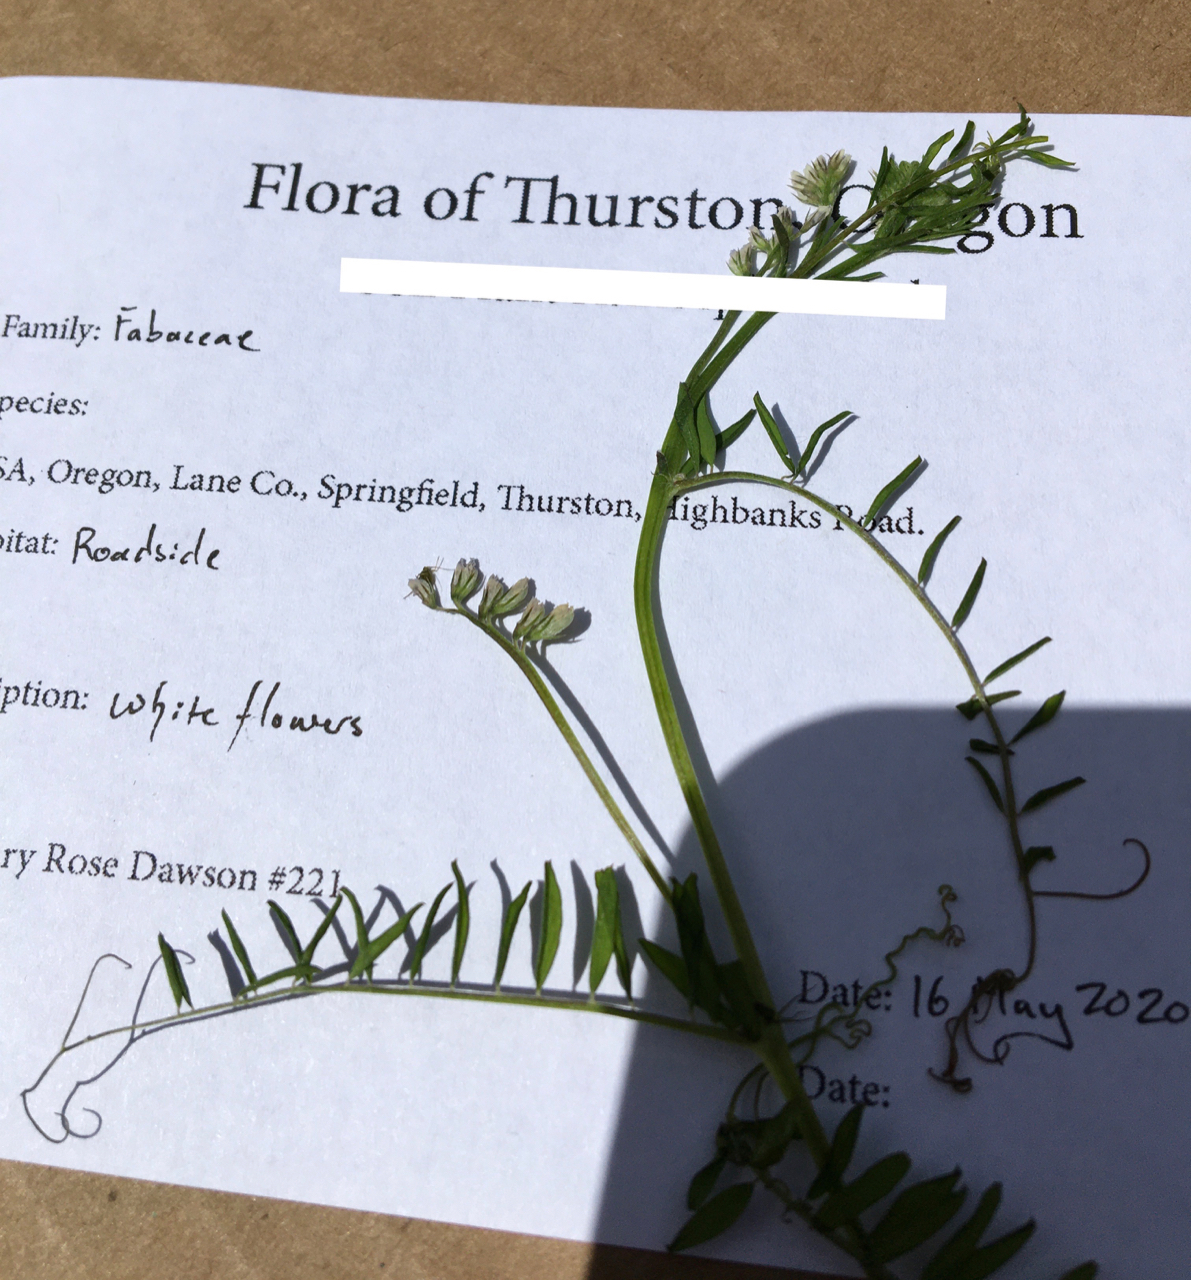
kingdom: Plantae
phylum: Tracheophyta
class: Magnoliopsida
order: Fabales
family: Fabaceae
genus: Vicia
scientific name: Vicia hirsuta
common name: Tiny vetch
